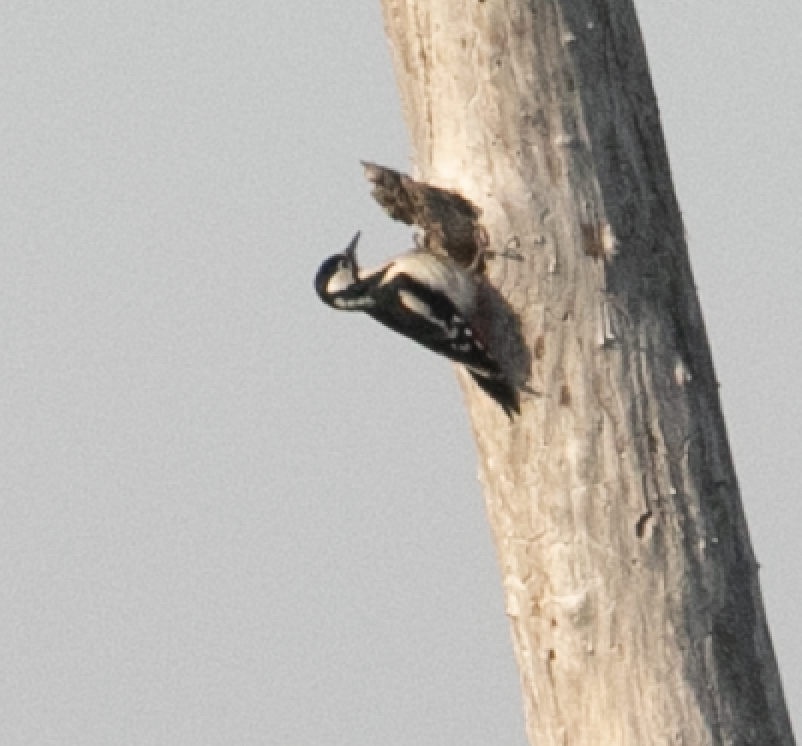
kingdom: Animalia
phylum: Chordata
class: Aves
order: Piciformes
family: Picidae
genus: Dendrocopos
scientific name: Dendrocopos major
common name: Great spotted woodpecker
